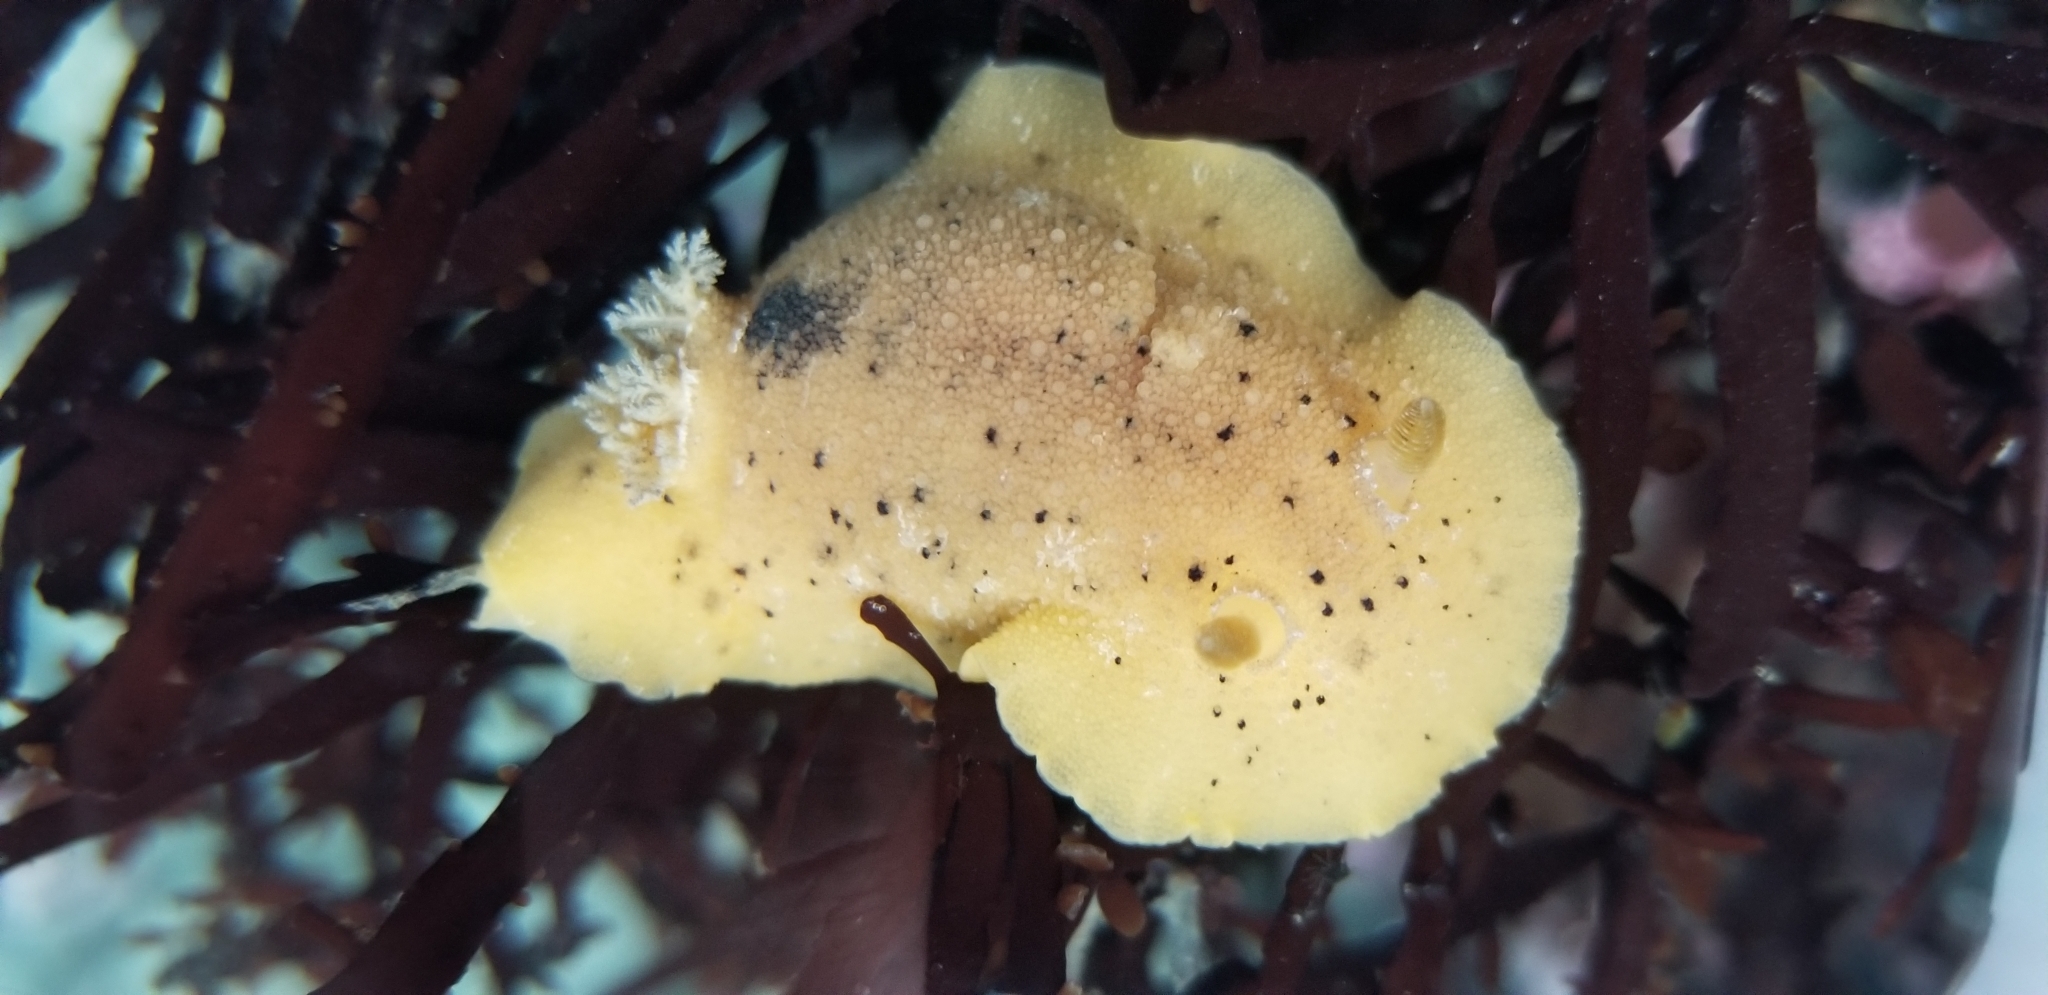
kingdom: Animalia
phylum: Mollusca
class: Gastropoda
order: Nudibranchia
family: Discodorididae
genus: Geitodoris
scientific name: Geitodoris heathi
